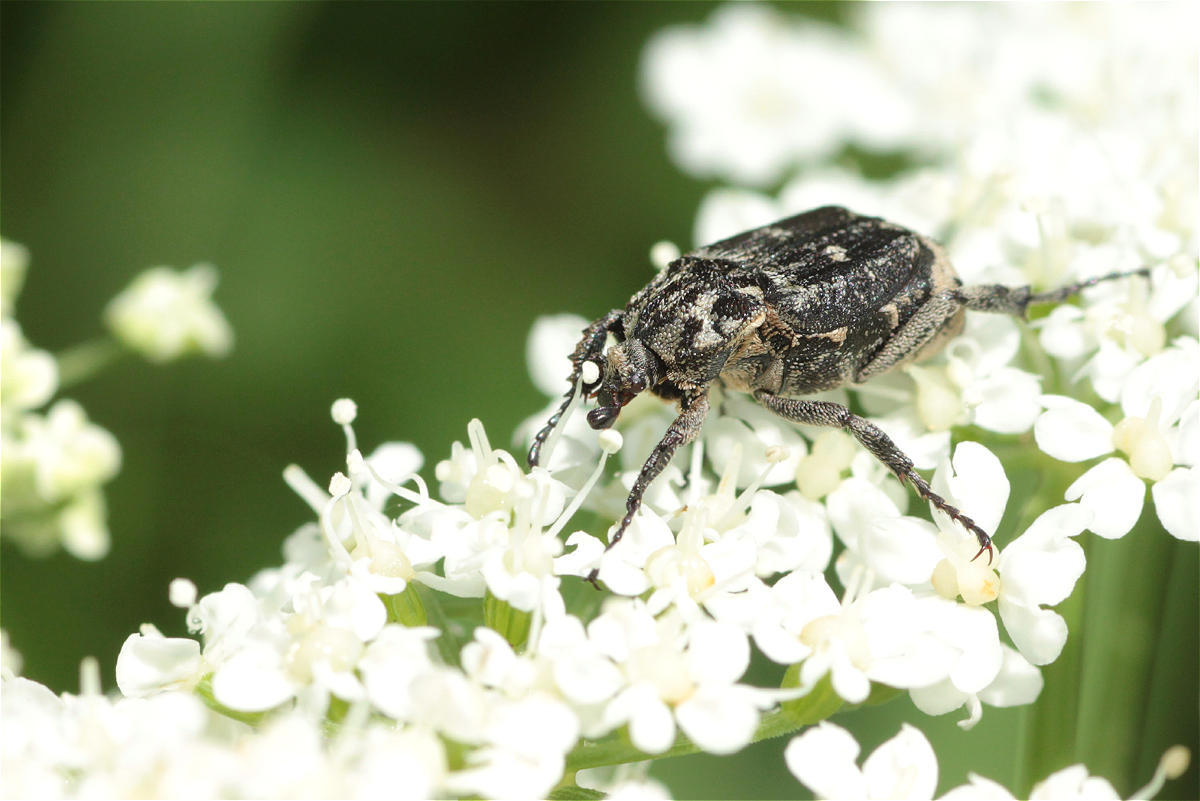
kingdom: Animalia
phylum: Arthropoda
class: Insecta
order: Coleoptera
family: Scarabaeidae
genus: Valgus
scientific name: Valgus hemipterus
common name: Bug flower chafer
